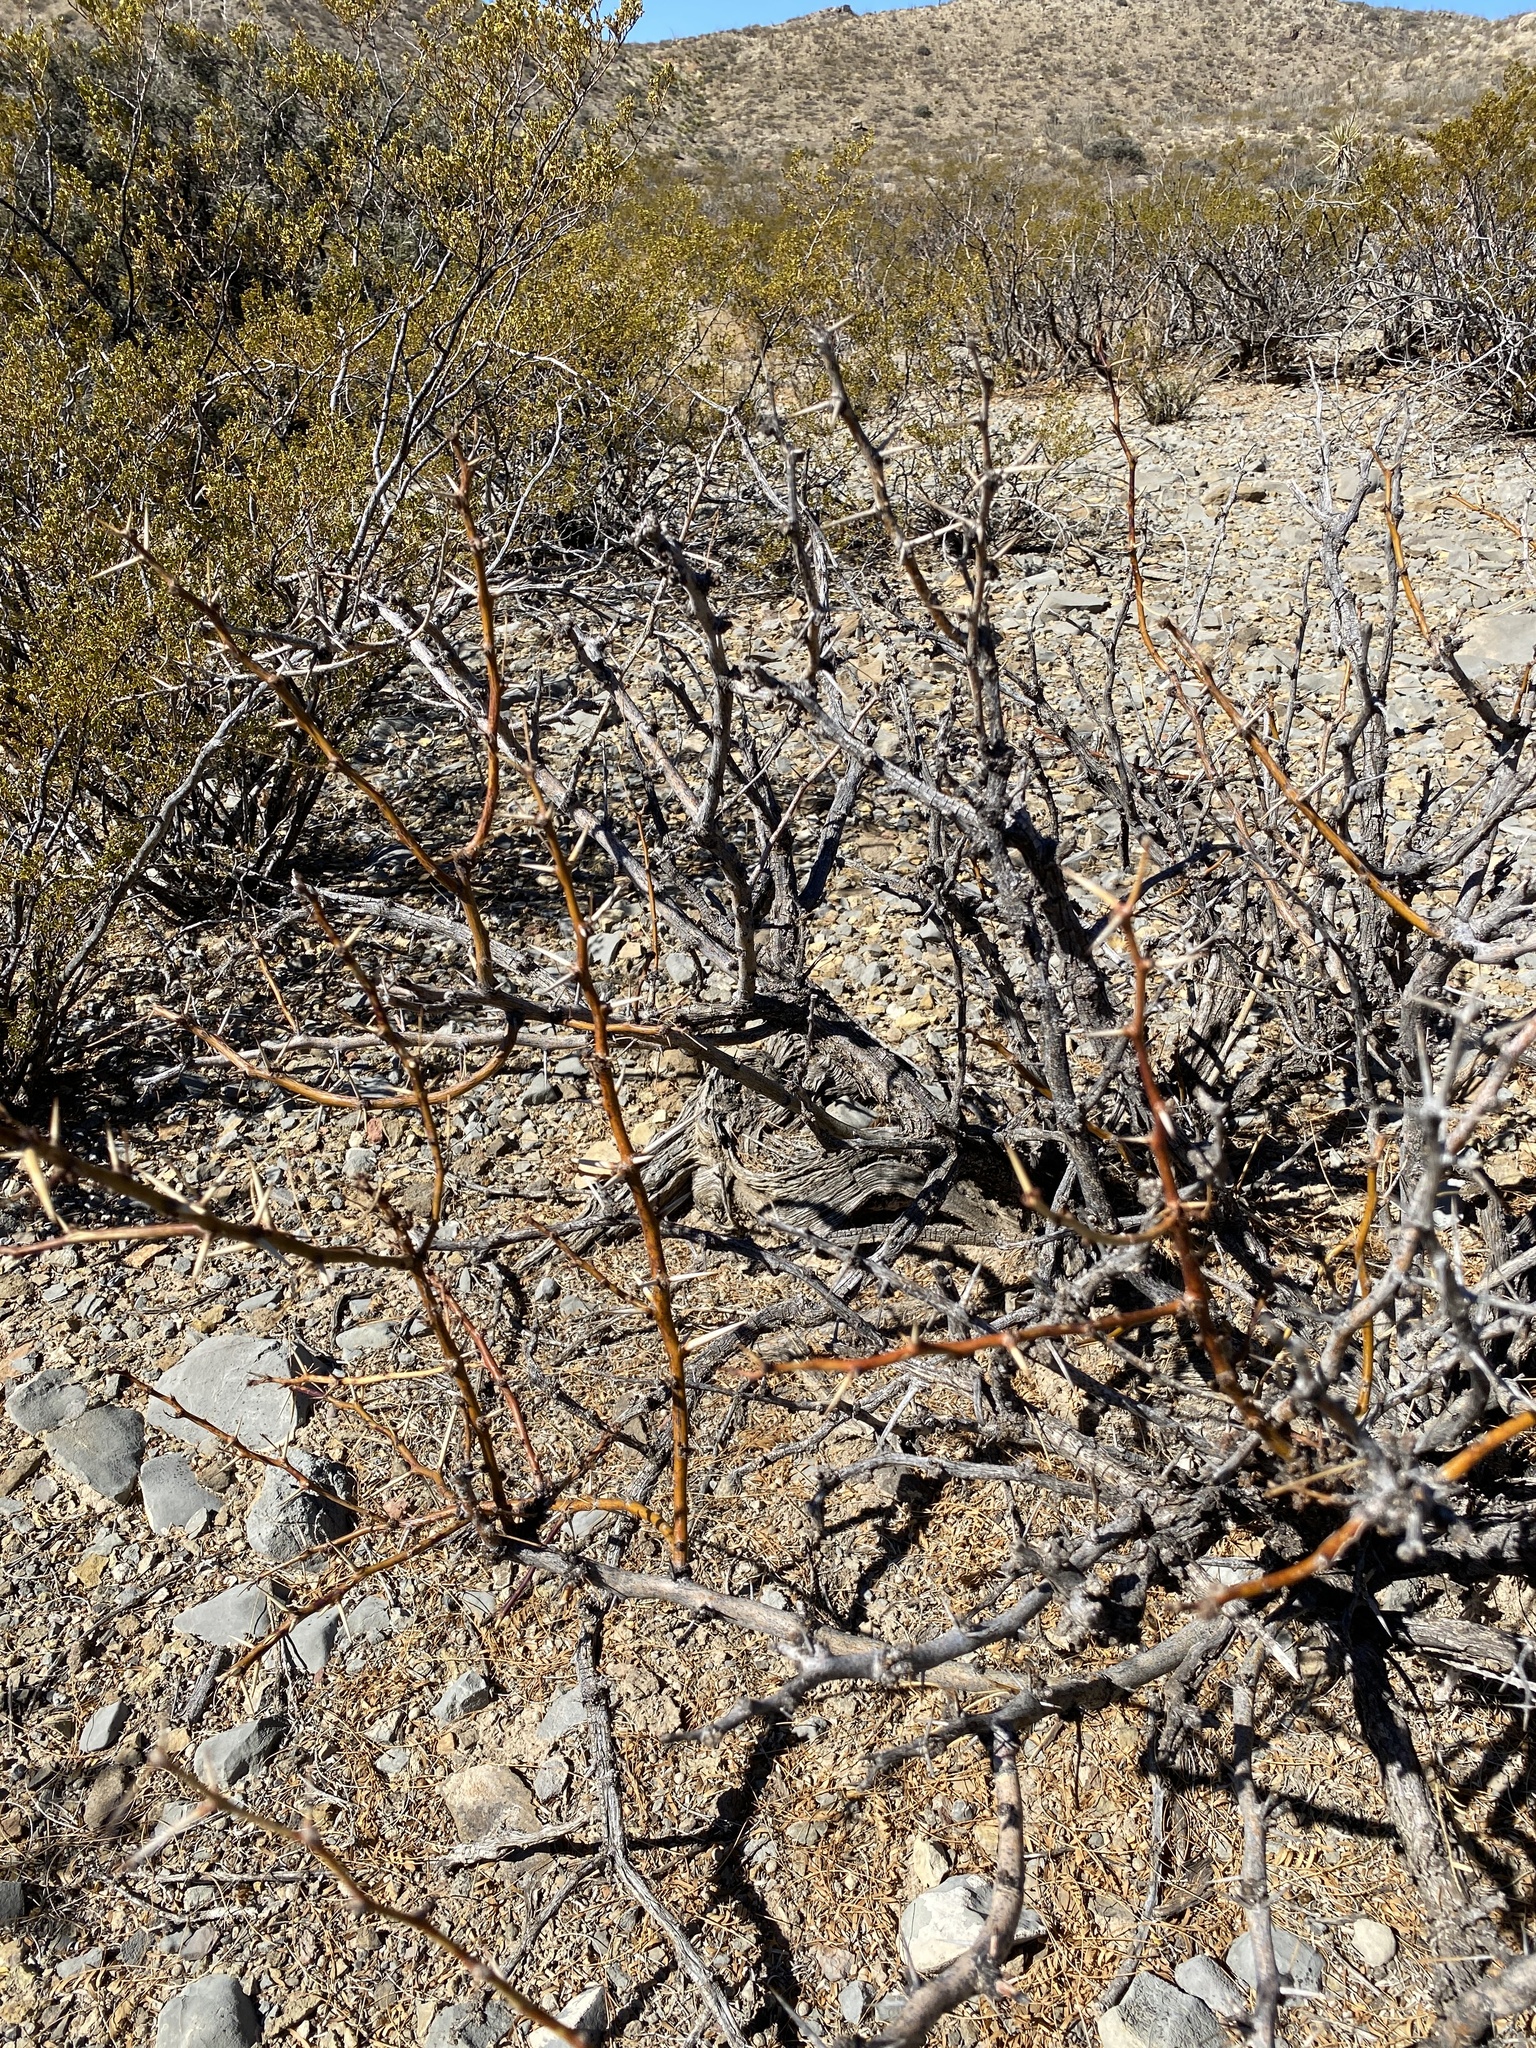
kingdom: Plantae
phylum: Tracheophyta
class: Magnoliopsida
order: Fabales
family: Fabaceae
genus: Prosopis
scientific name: Prosopis glandulosa
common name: Honey mesquite
